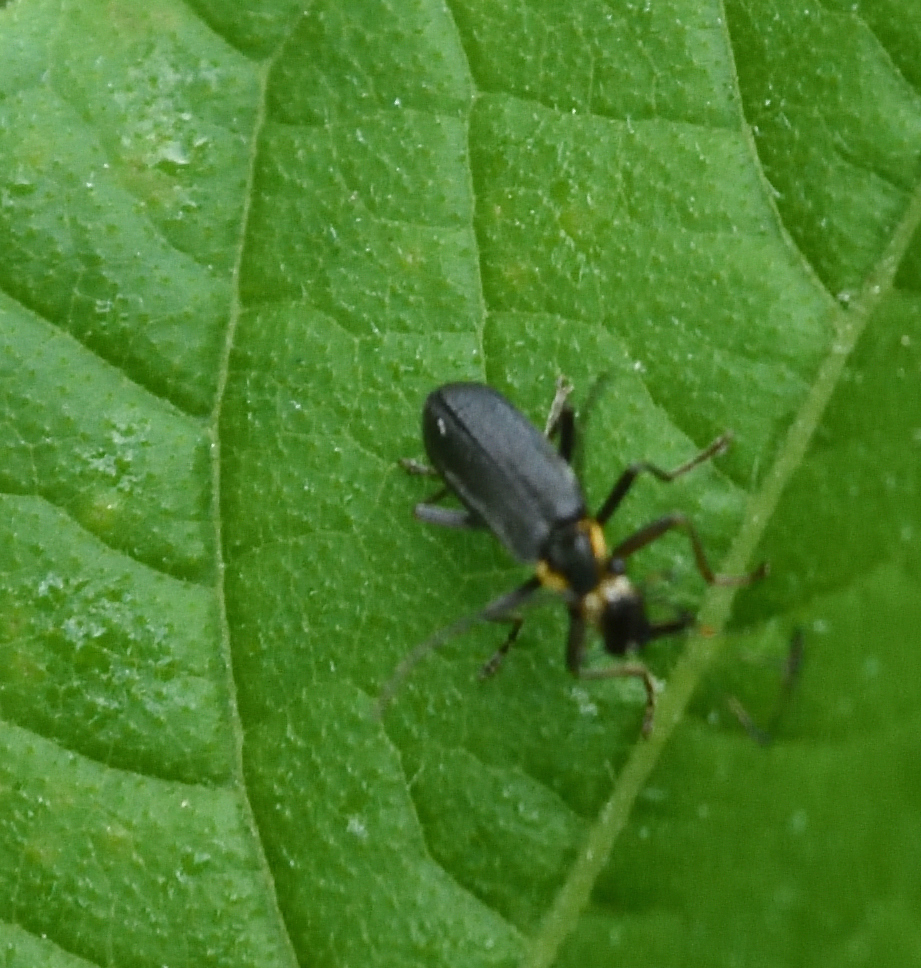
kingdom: Animalia
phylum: Arthropoda
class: Insecta
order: Coleoptera
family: Cantharidae
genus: Podabrus
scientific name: Podabrus rugosulus
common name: Wrinkled soldier beetle
